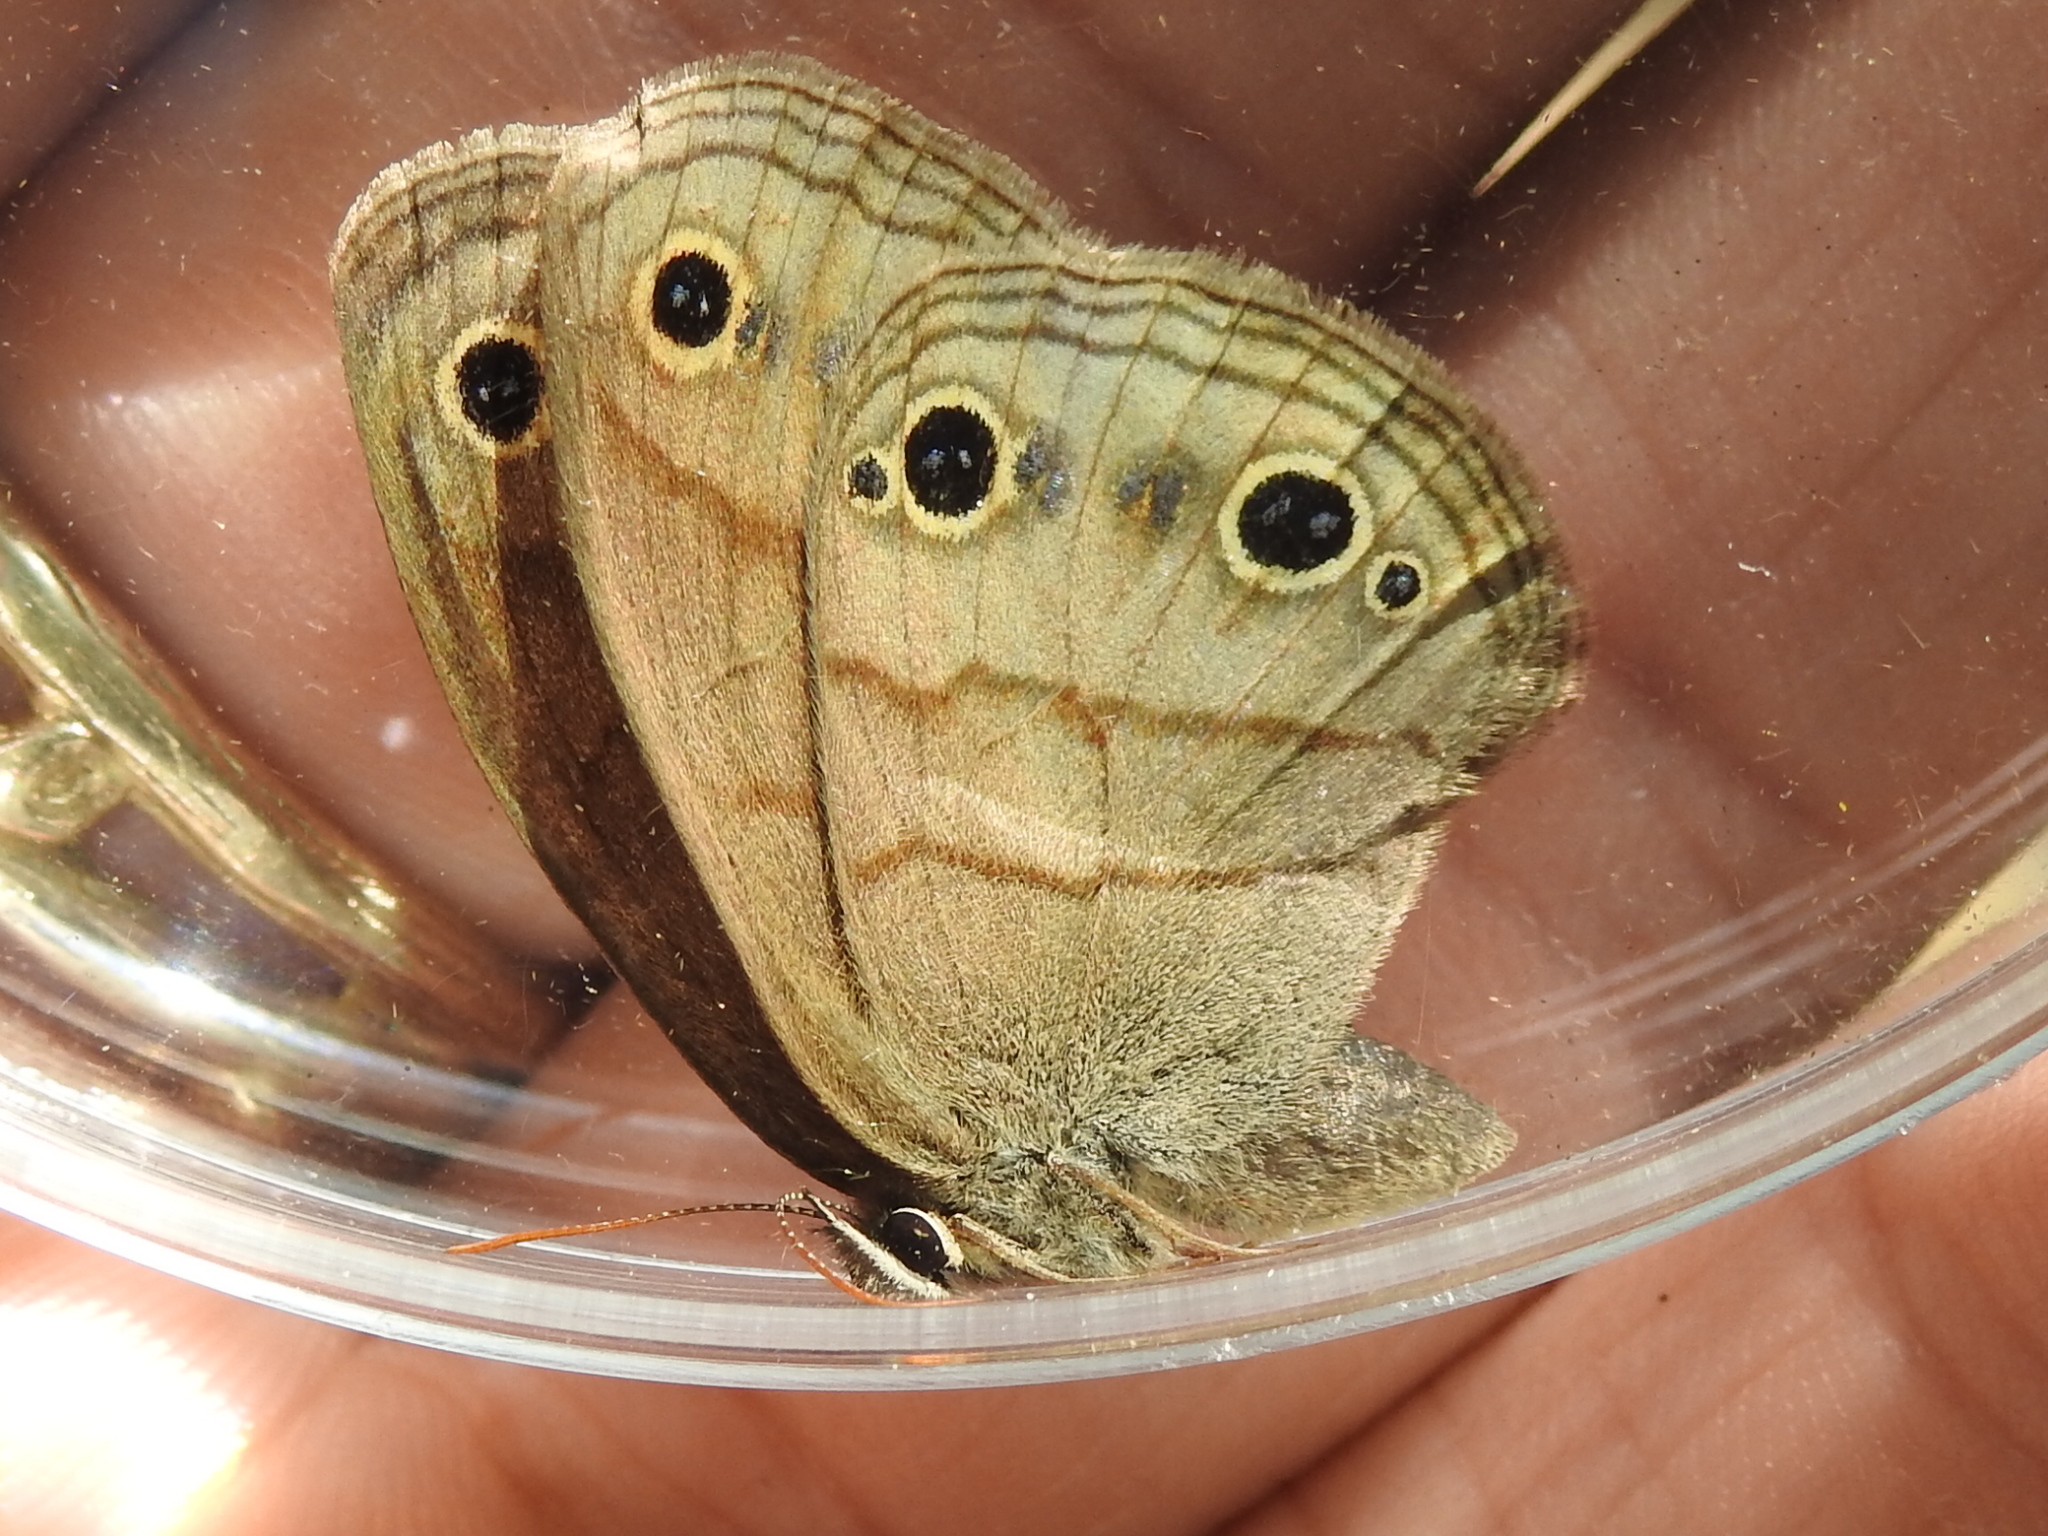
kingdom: Animalia
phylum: Arthropoda
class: Insecta
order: Lepidoptera
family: Nymphalidae
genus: Euptychia
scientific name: Euptychia cymela
